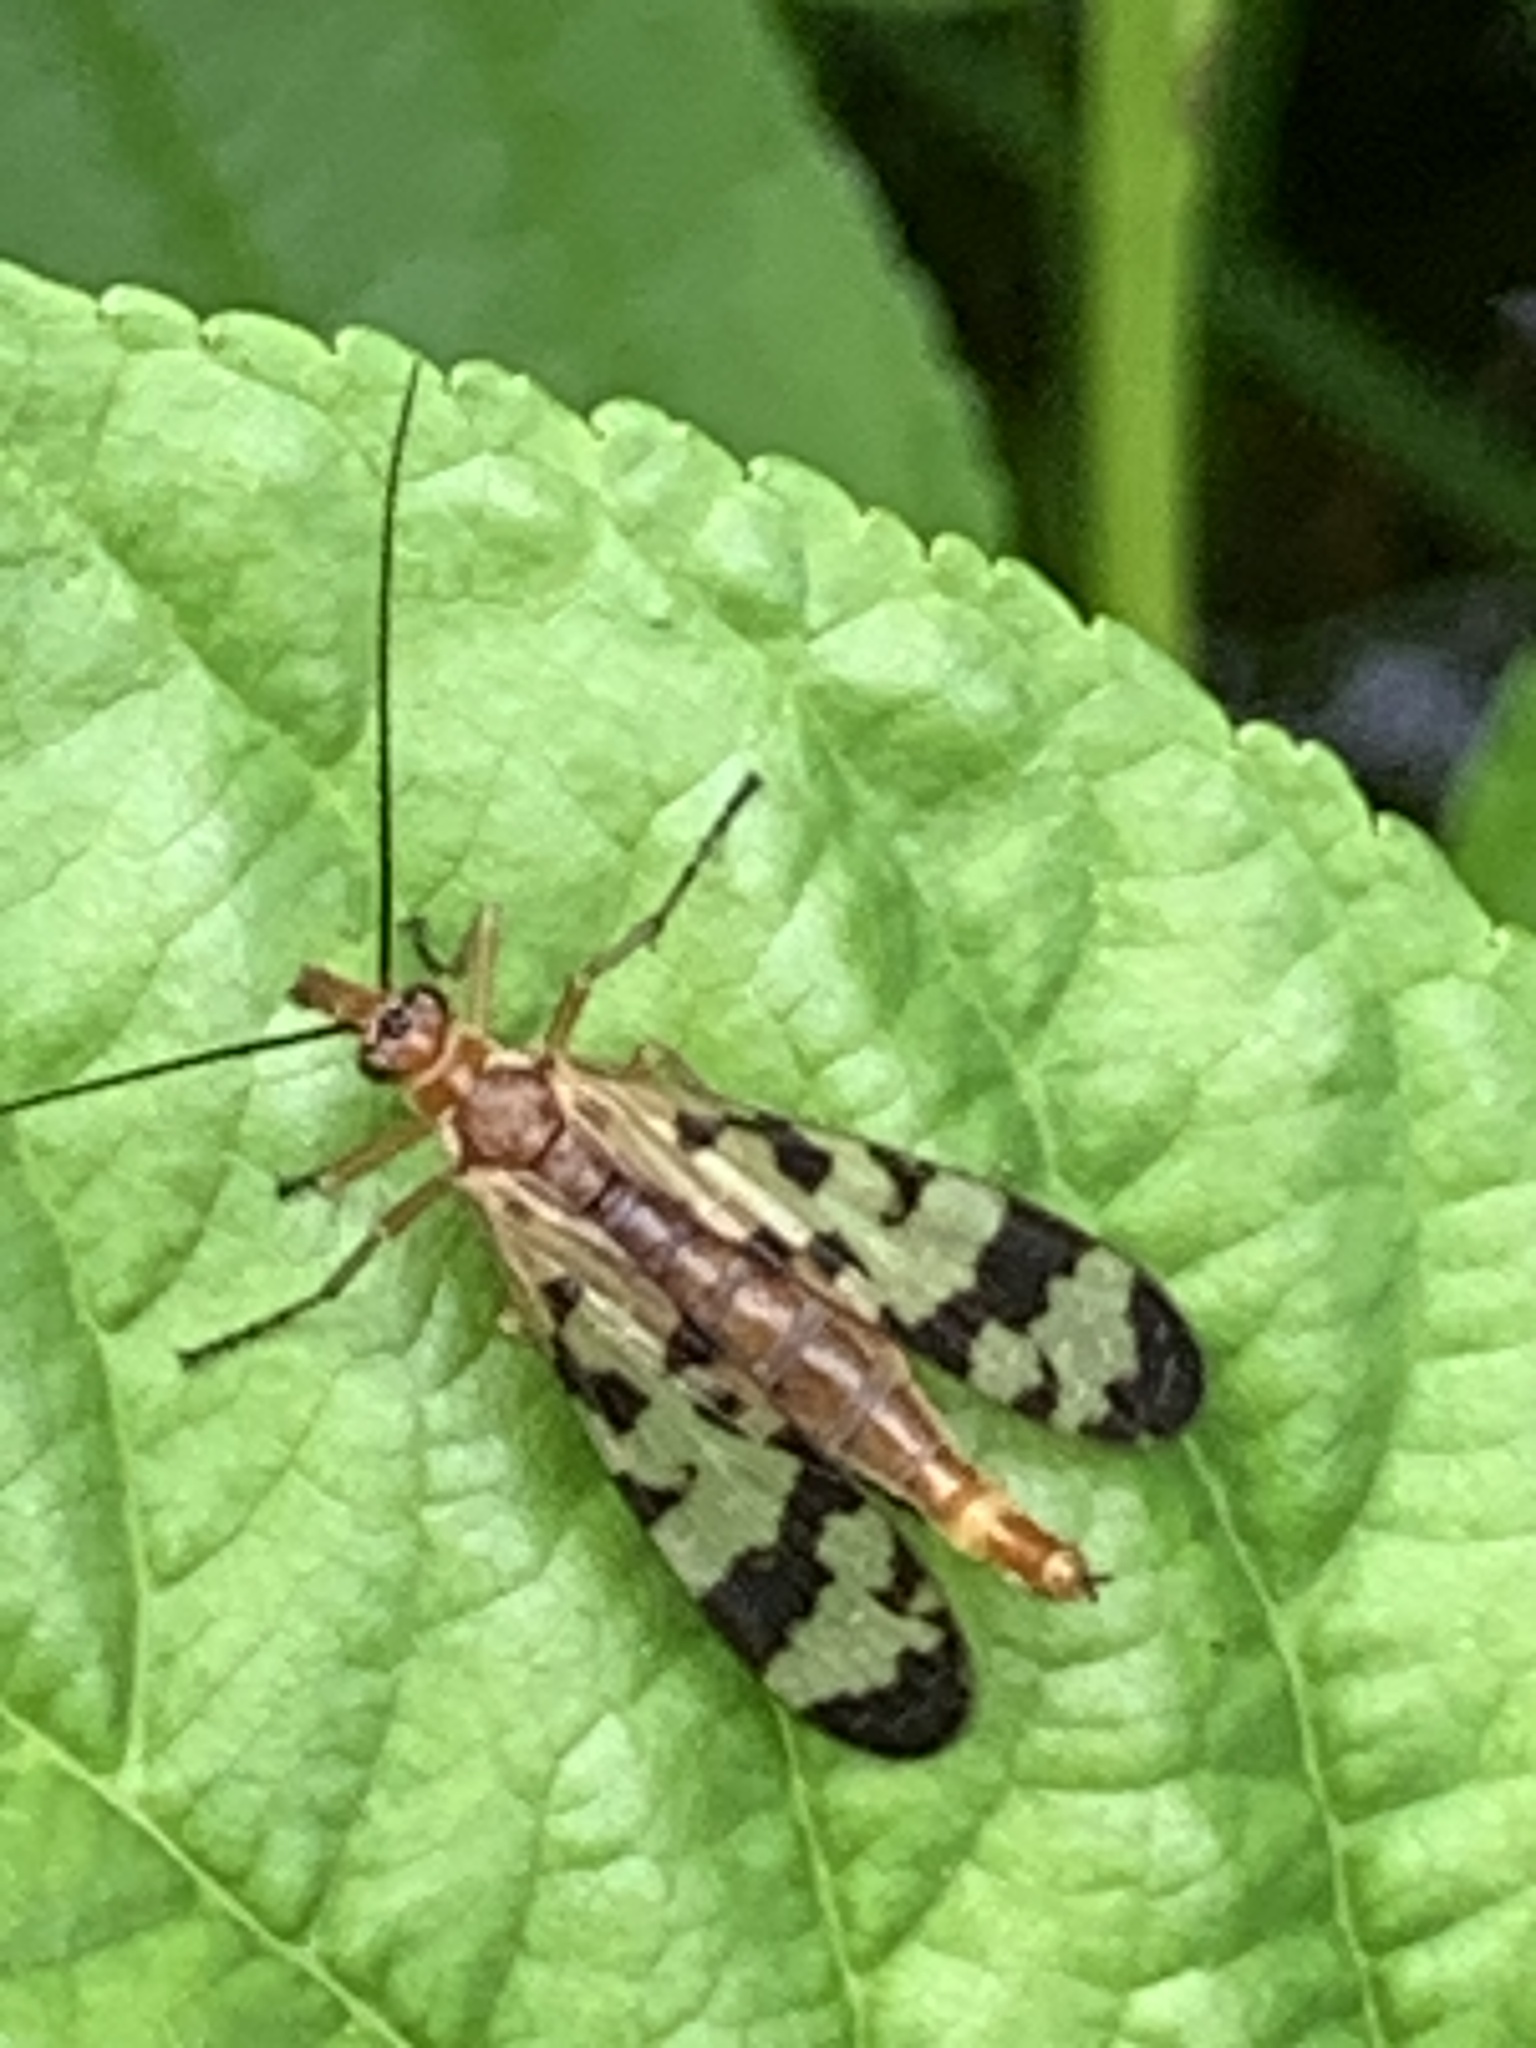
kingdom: Animalia
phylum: Arthropoda
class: Insecta
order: Mecoptera
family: Panorpidae
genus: Panorpa
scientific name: Panorpa galerita
